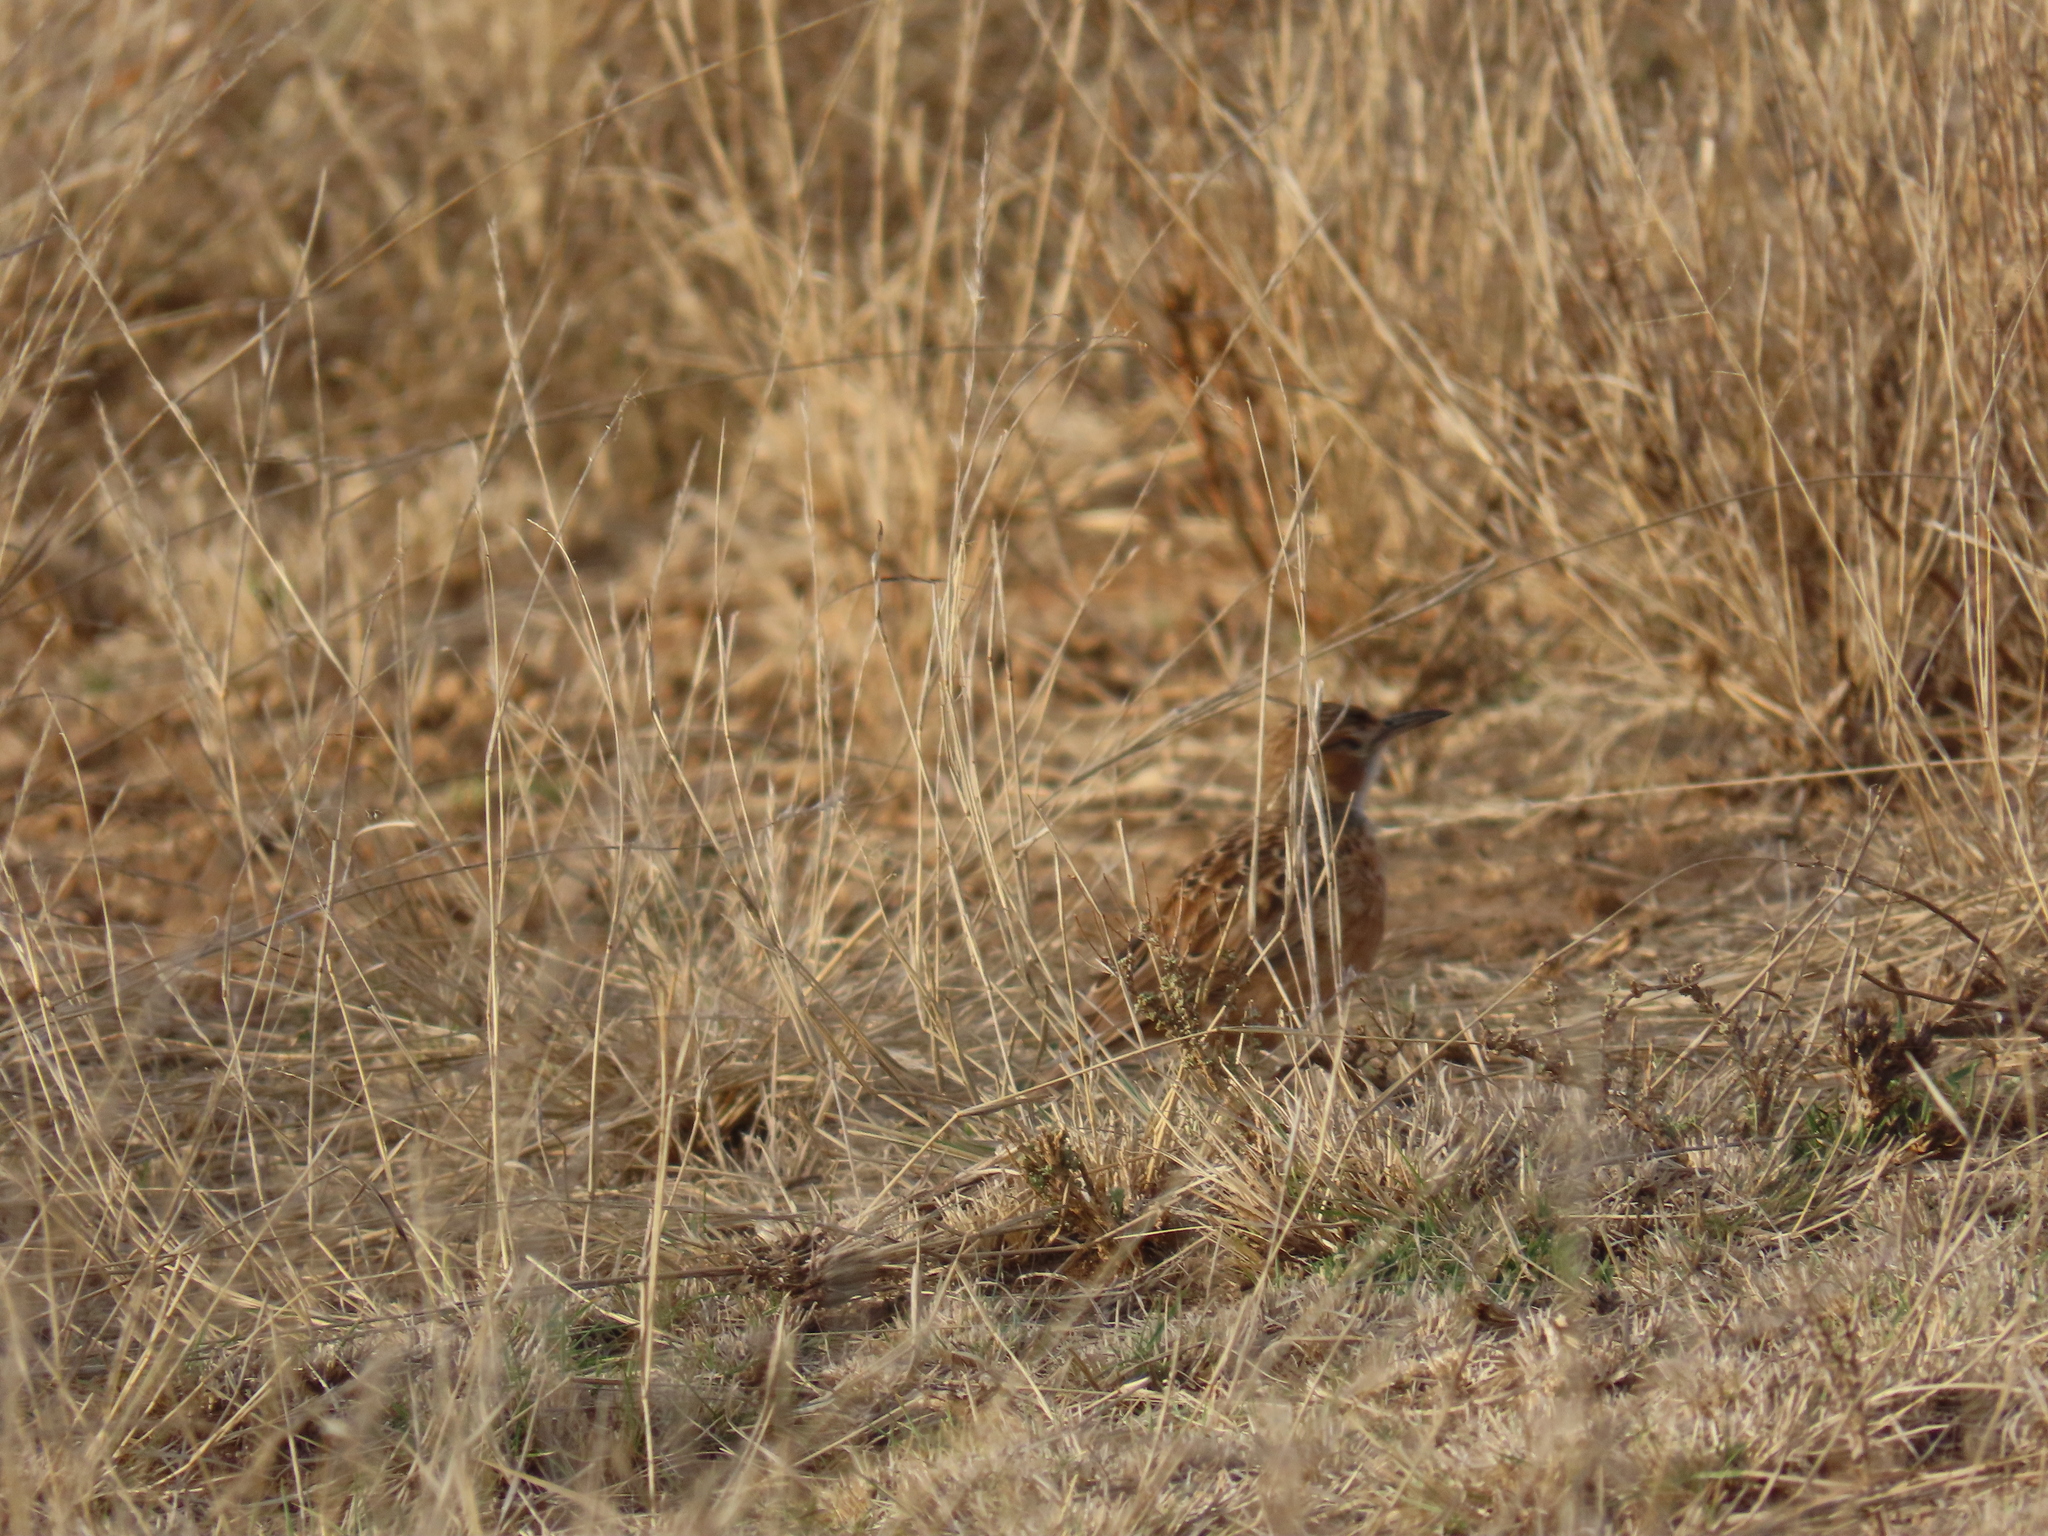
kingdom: Animalia
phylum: Chordata
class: Aves
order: Passeriformes
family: Alaudidae
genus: Chersomanes
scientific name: Chersomanes albofasciata
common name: Spike-heeled lark
